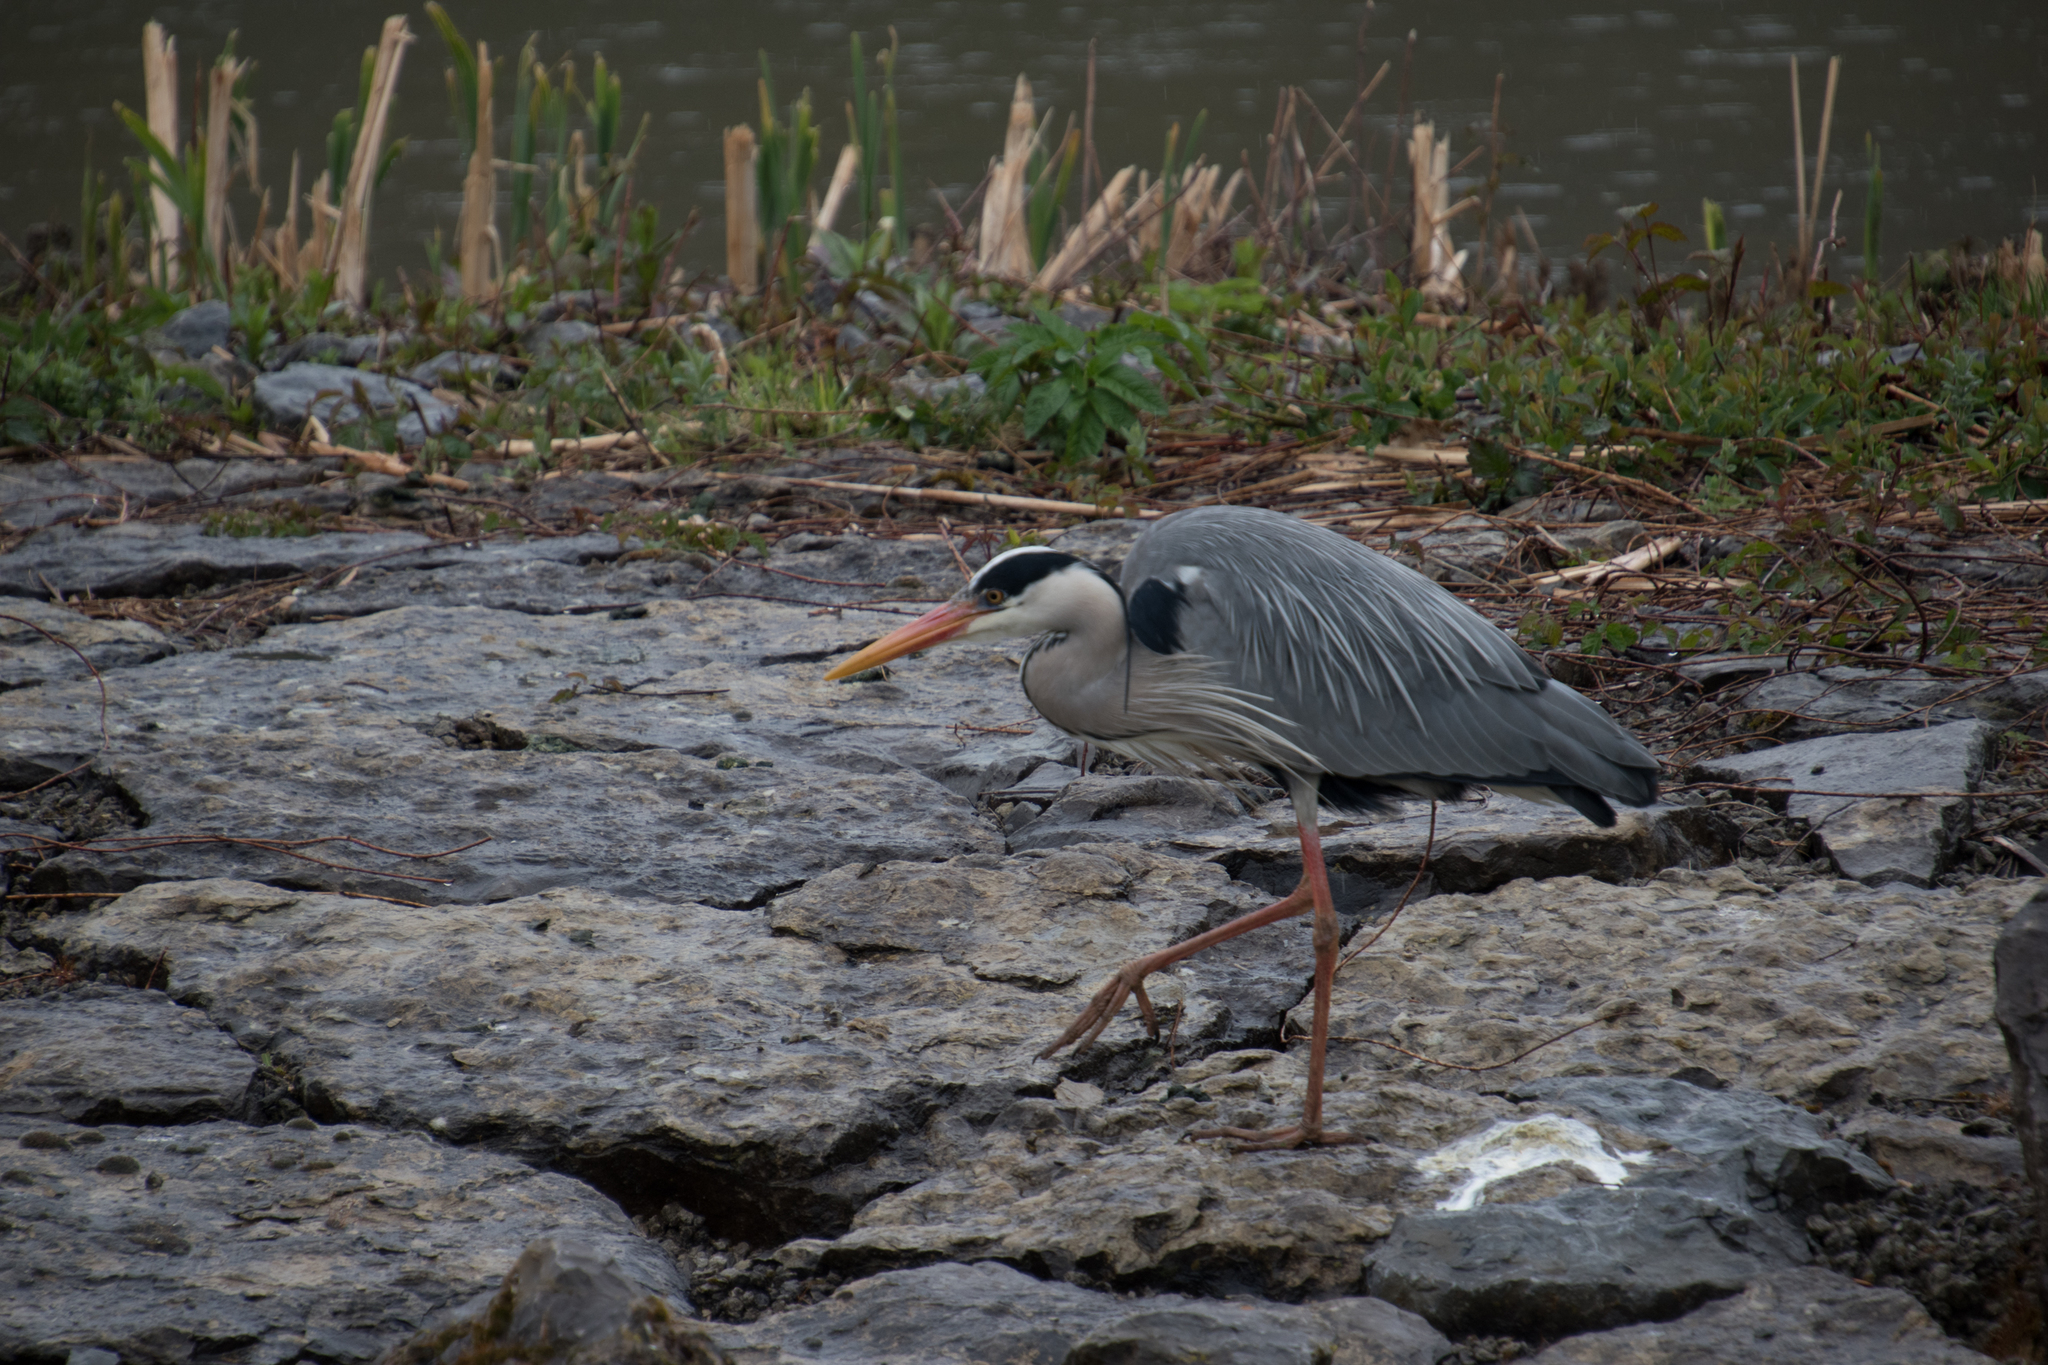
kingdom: Animalia
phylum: Chordata
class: Aves
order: Pelecaniformes
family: Ardeidae
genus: Ardea
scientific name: Ardea cinerea
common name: Grey heron
